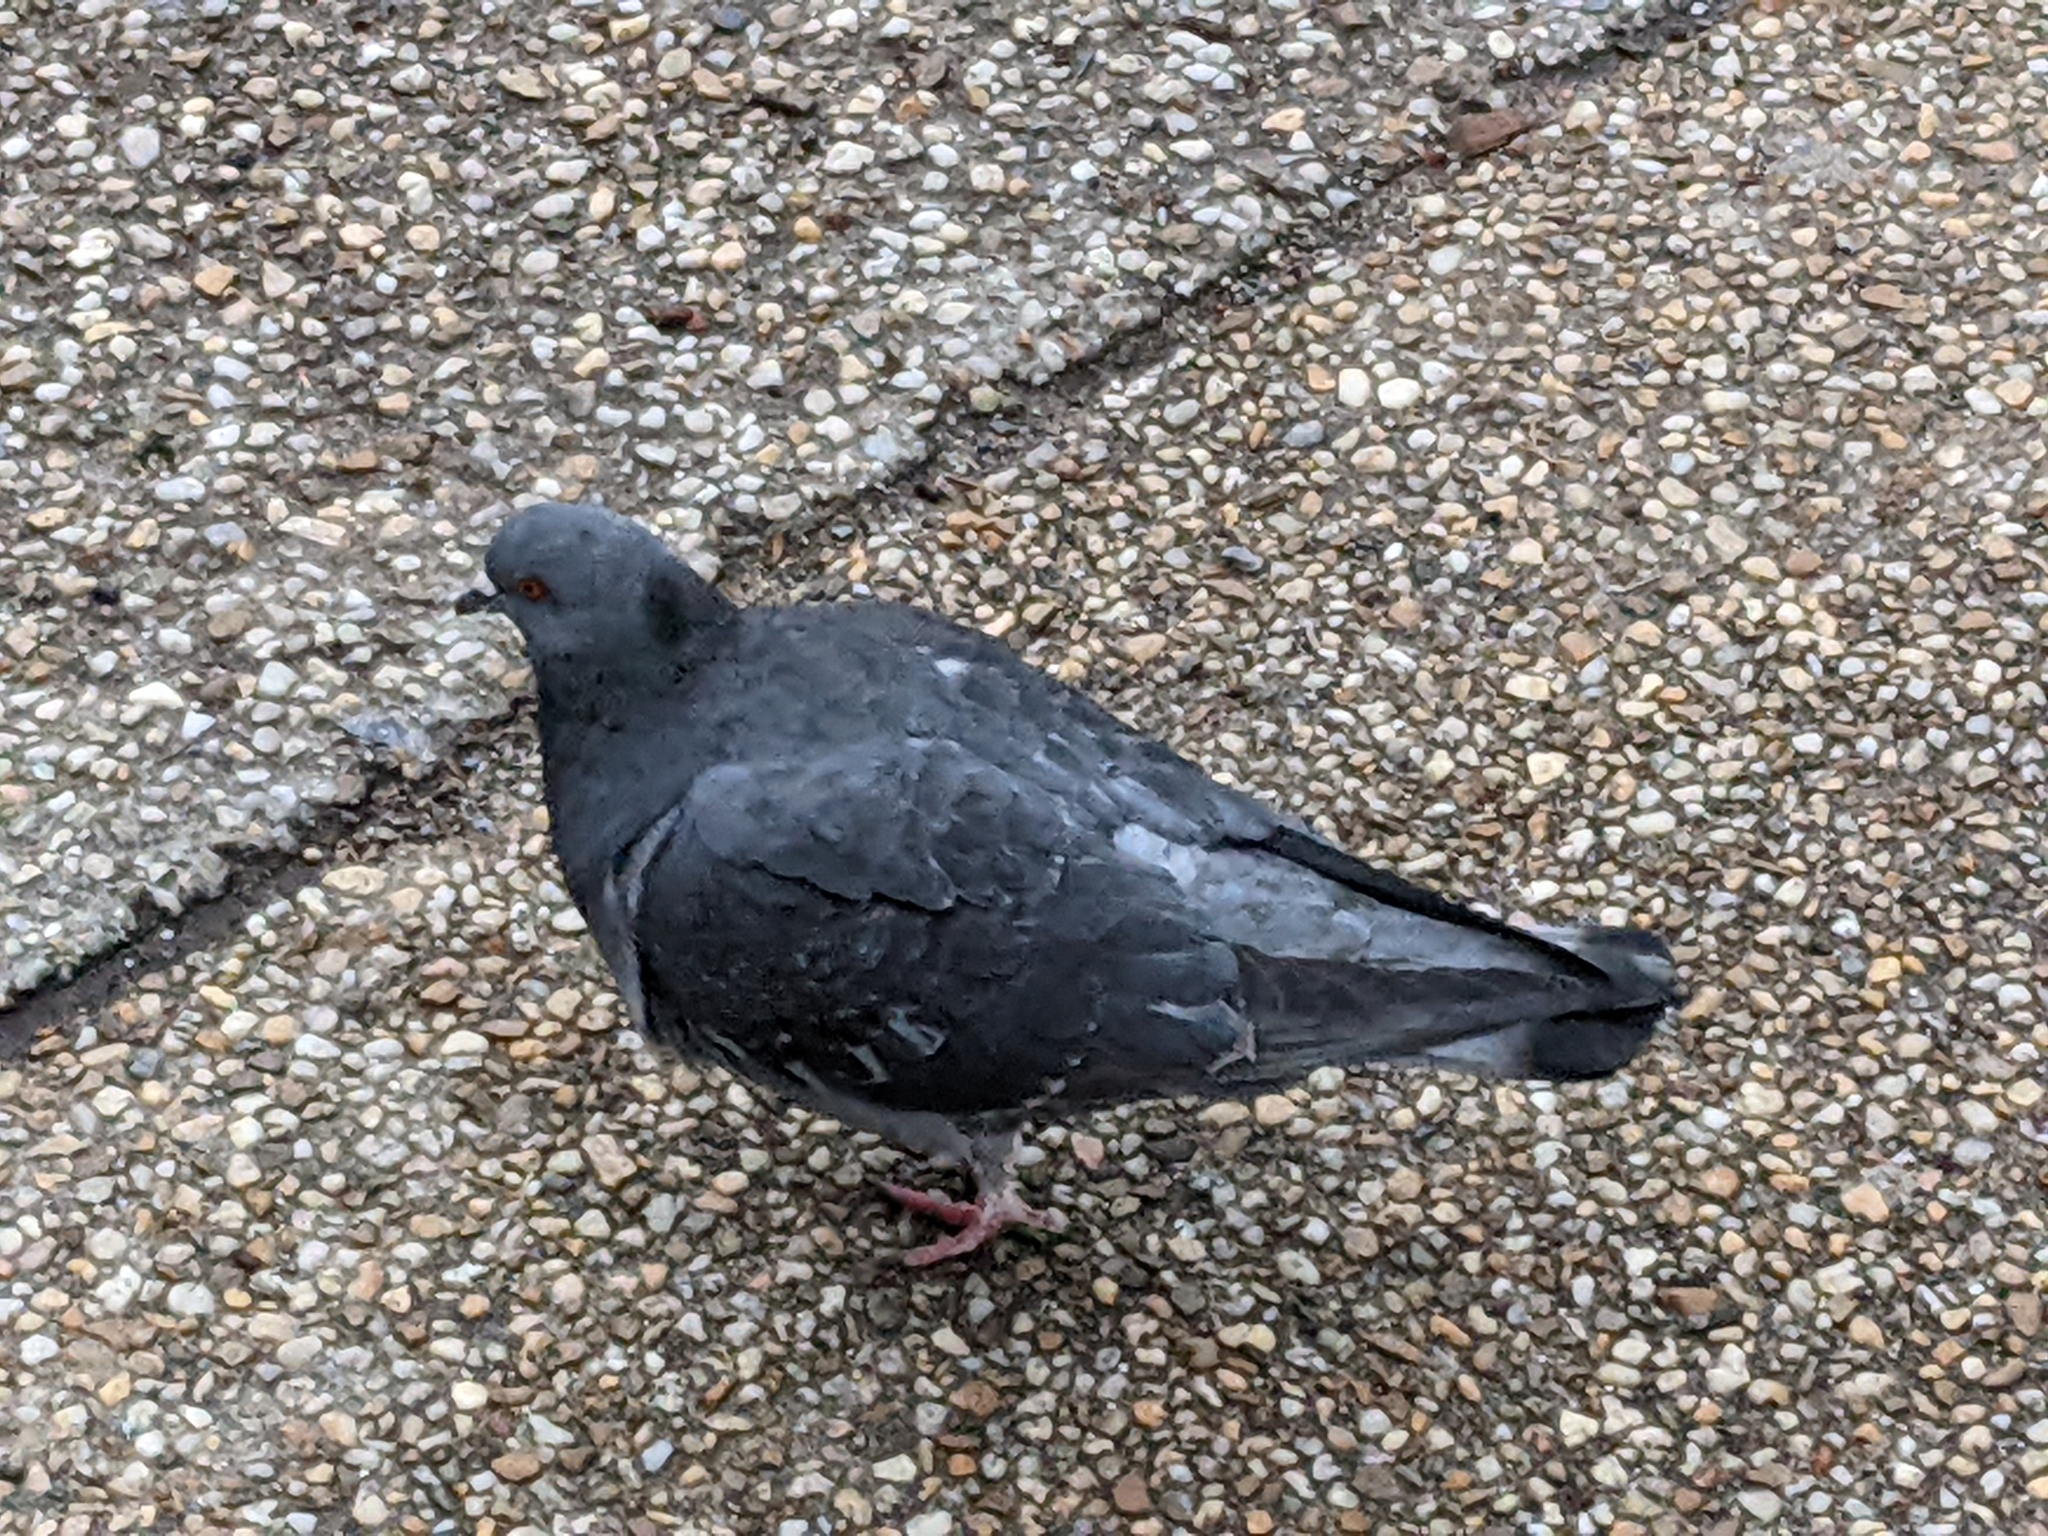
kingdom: Animalia
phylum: Chordata
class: Aves
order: Columbiformes
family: Columbidae
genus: Columba
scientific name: Columba livia
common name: Rock pigeon
